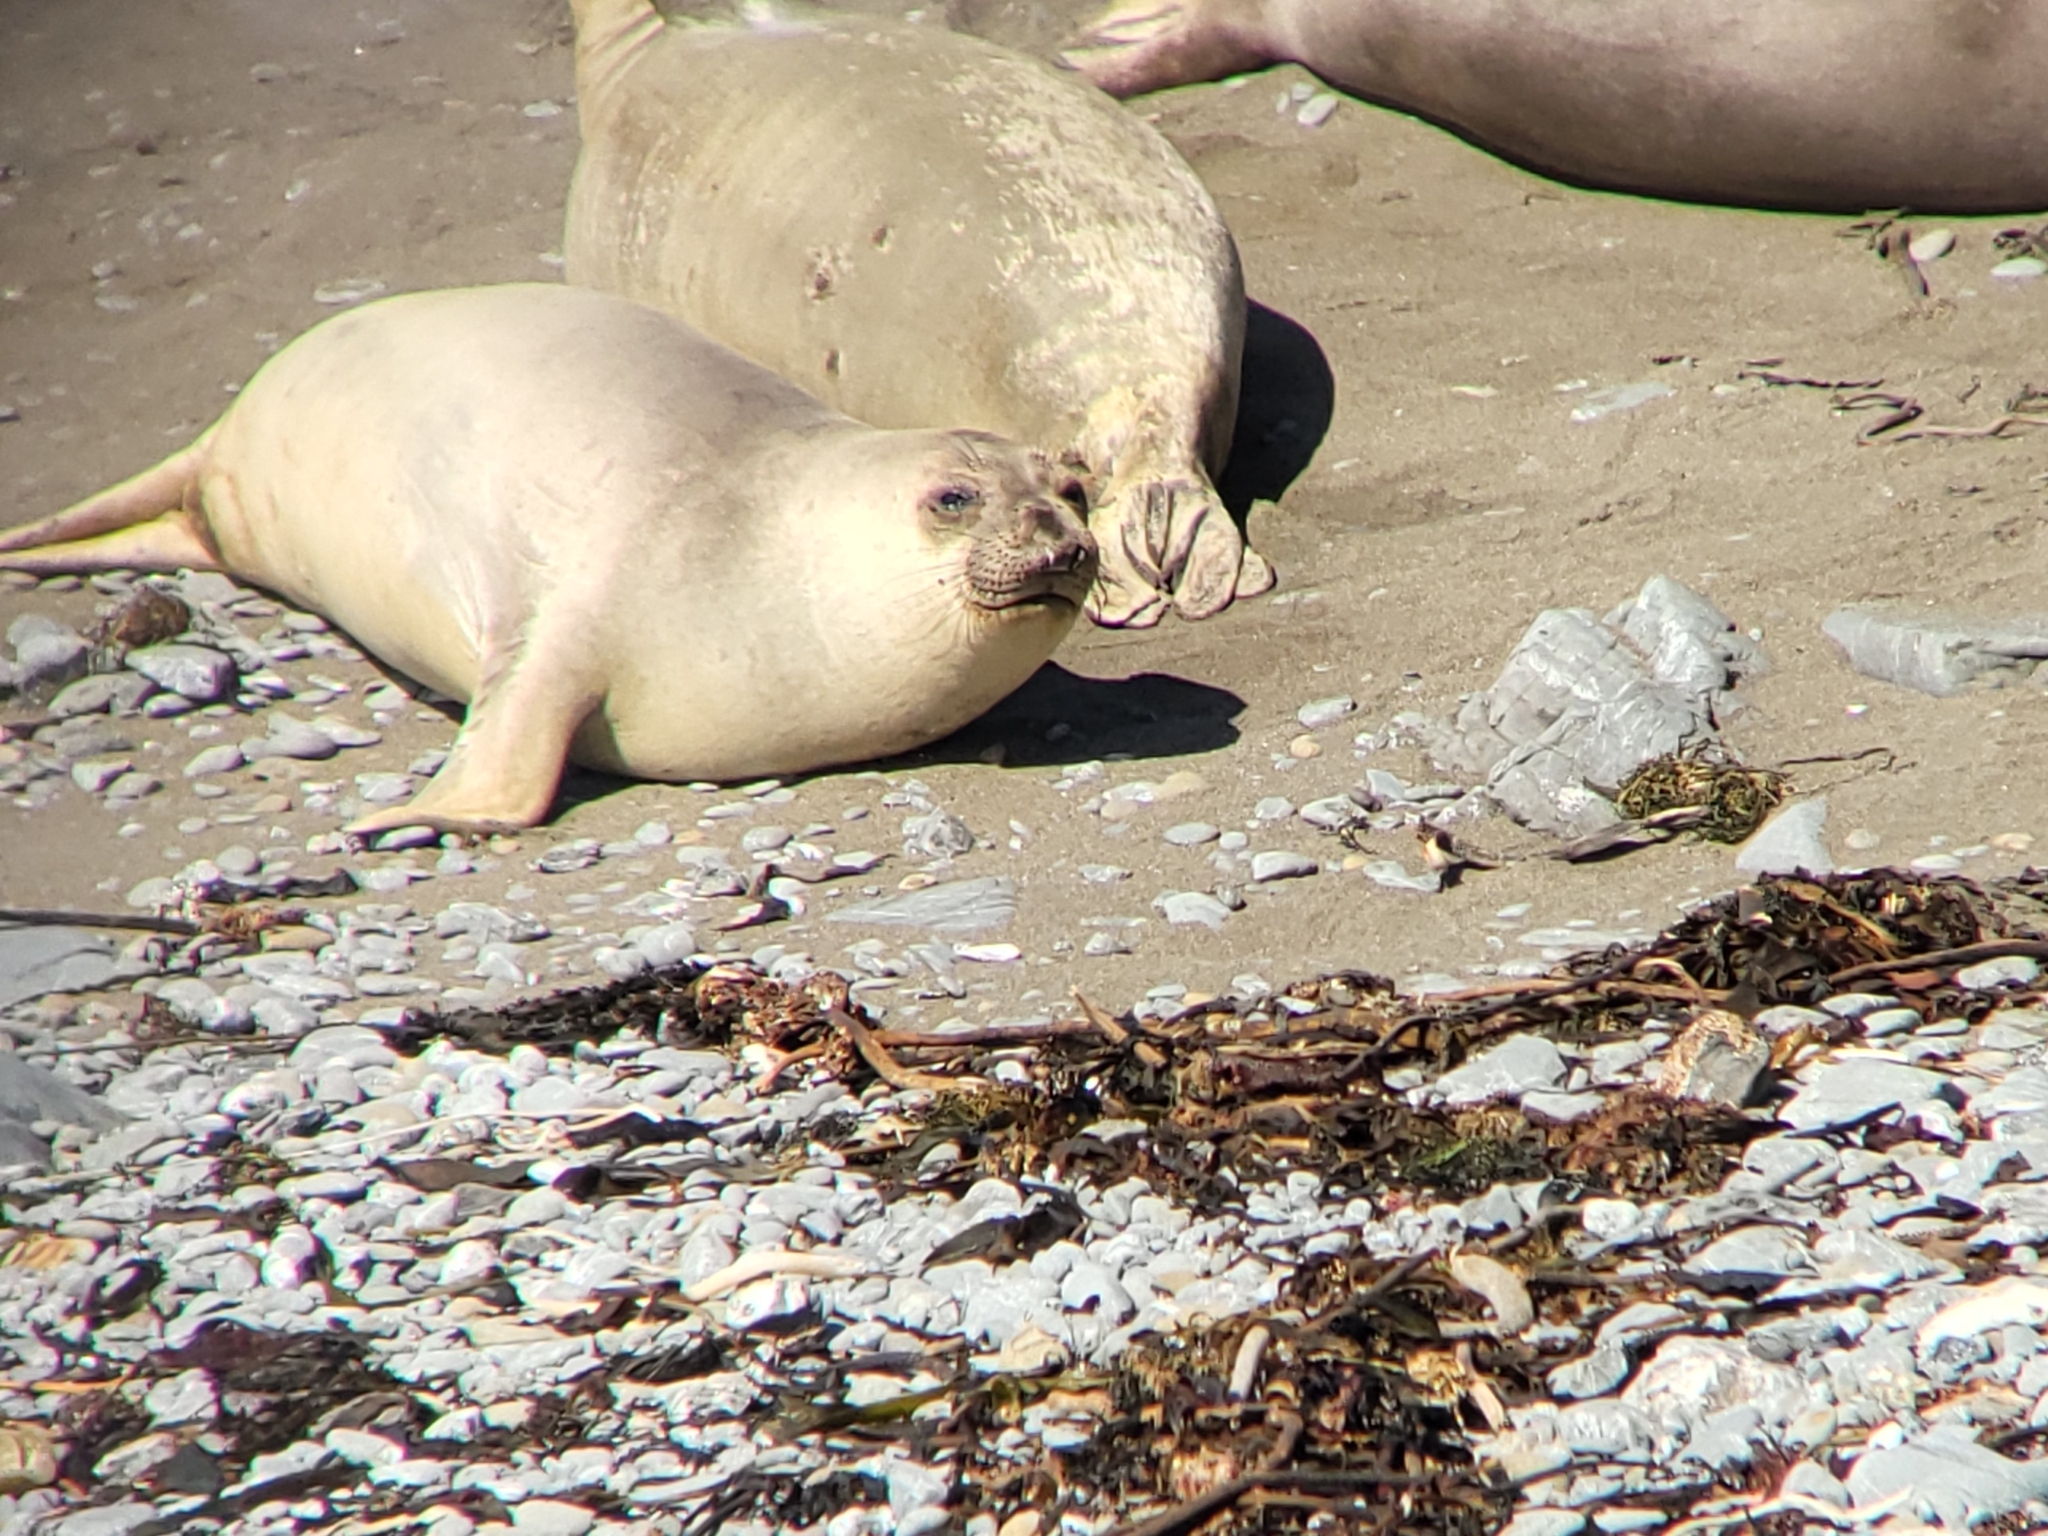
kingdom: Animalia
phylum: Chordata
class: Mammalia
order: Carnivora
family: Phocidae
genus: Mirounga
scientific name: Mirounga angustirostris
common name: Northern elephant seal
